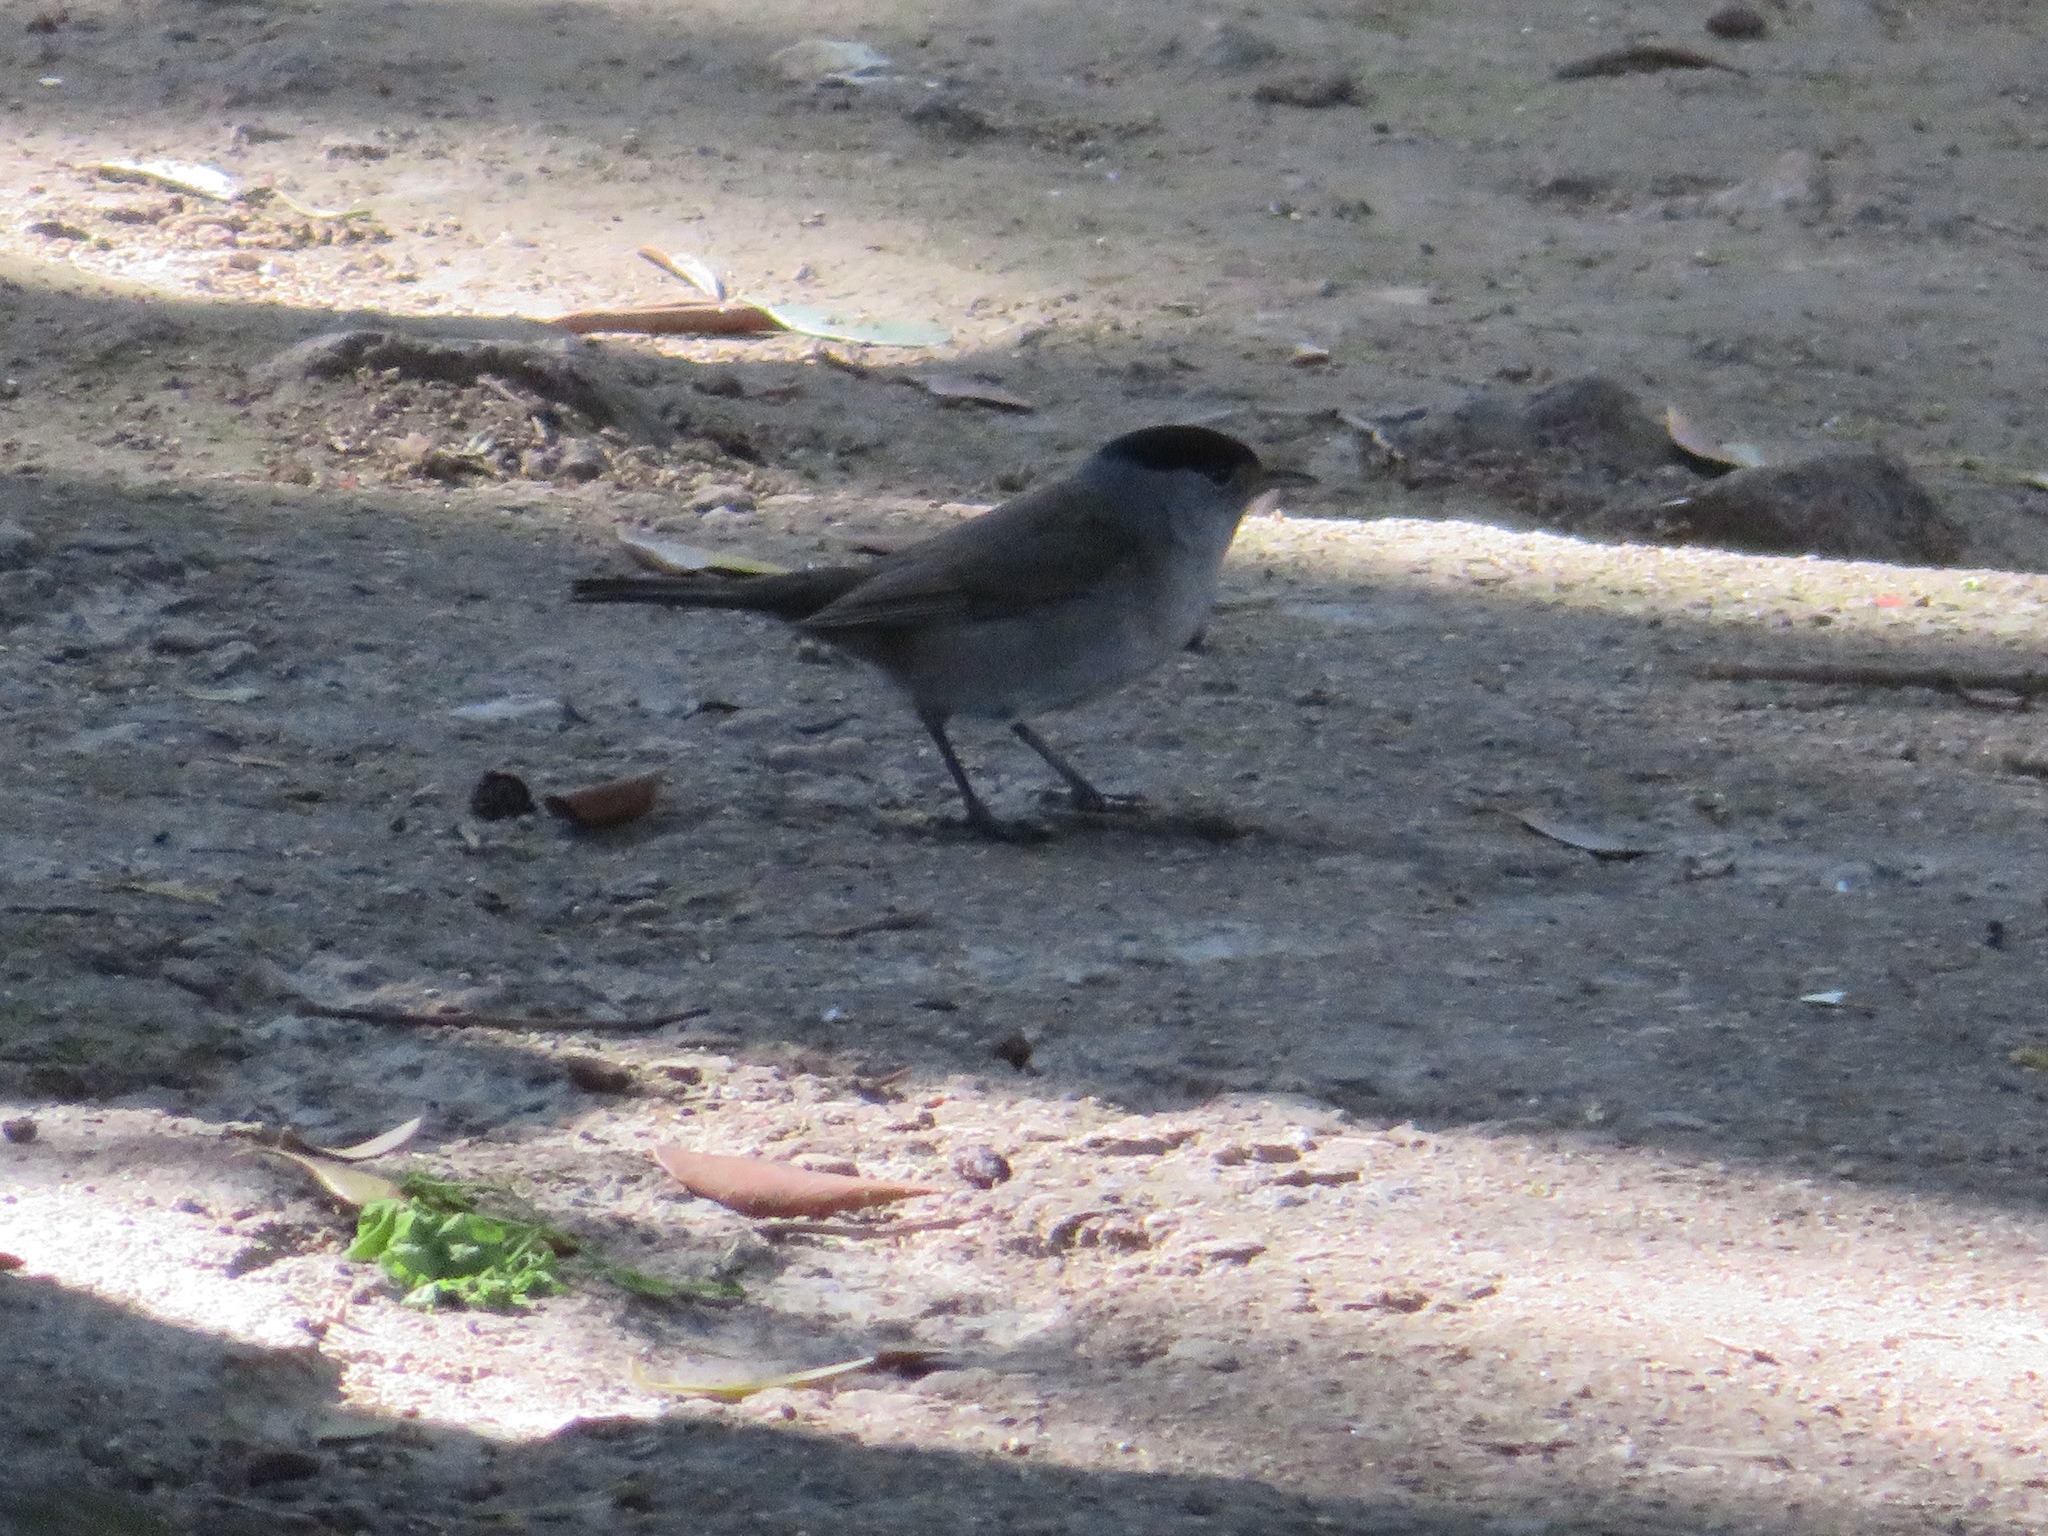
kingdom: Animalia
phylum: Chordata
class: Aves
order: Passeriformes
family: Sylviidae
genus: Sylvia
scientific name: Sylvia atricapilla
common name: Eurasian blackcap
